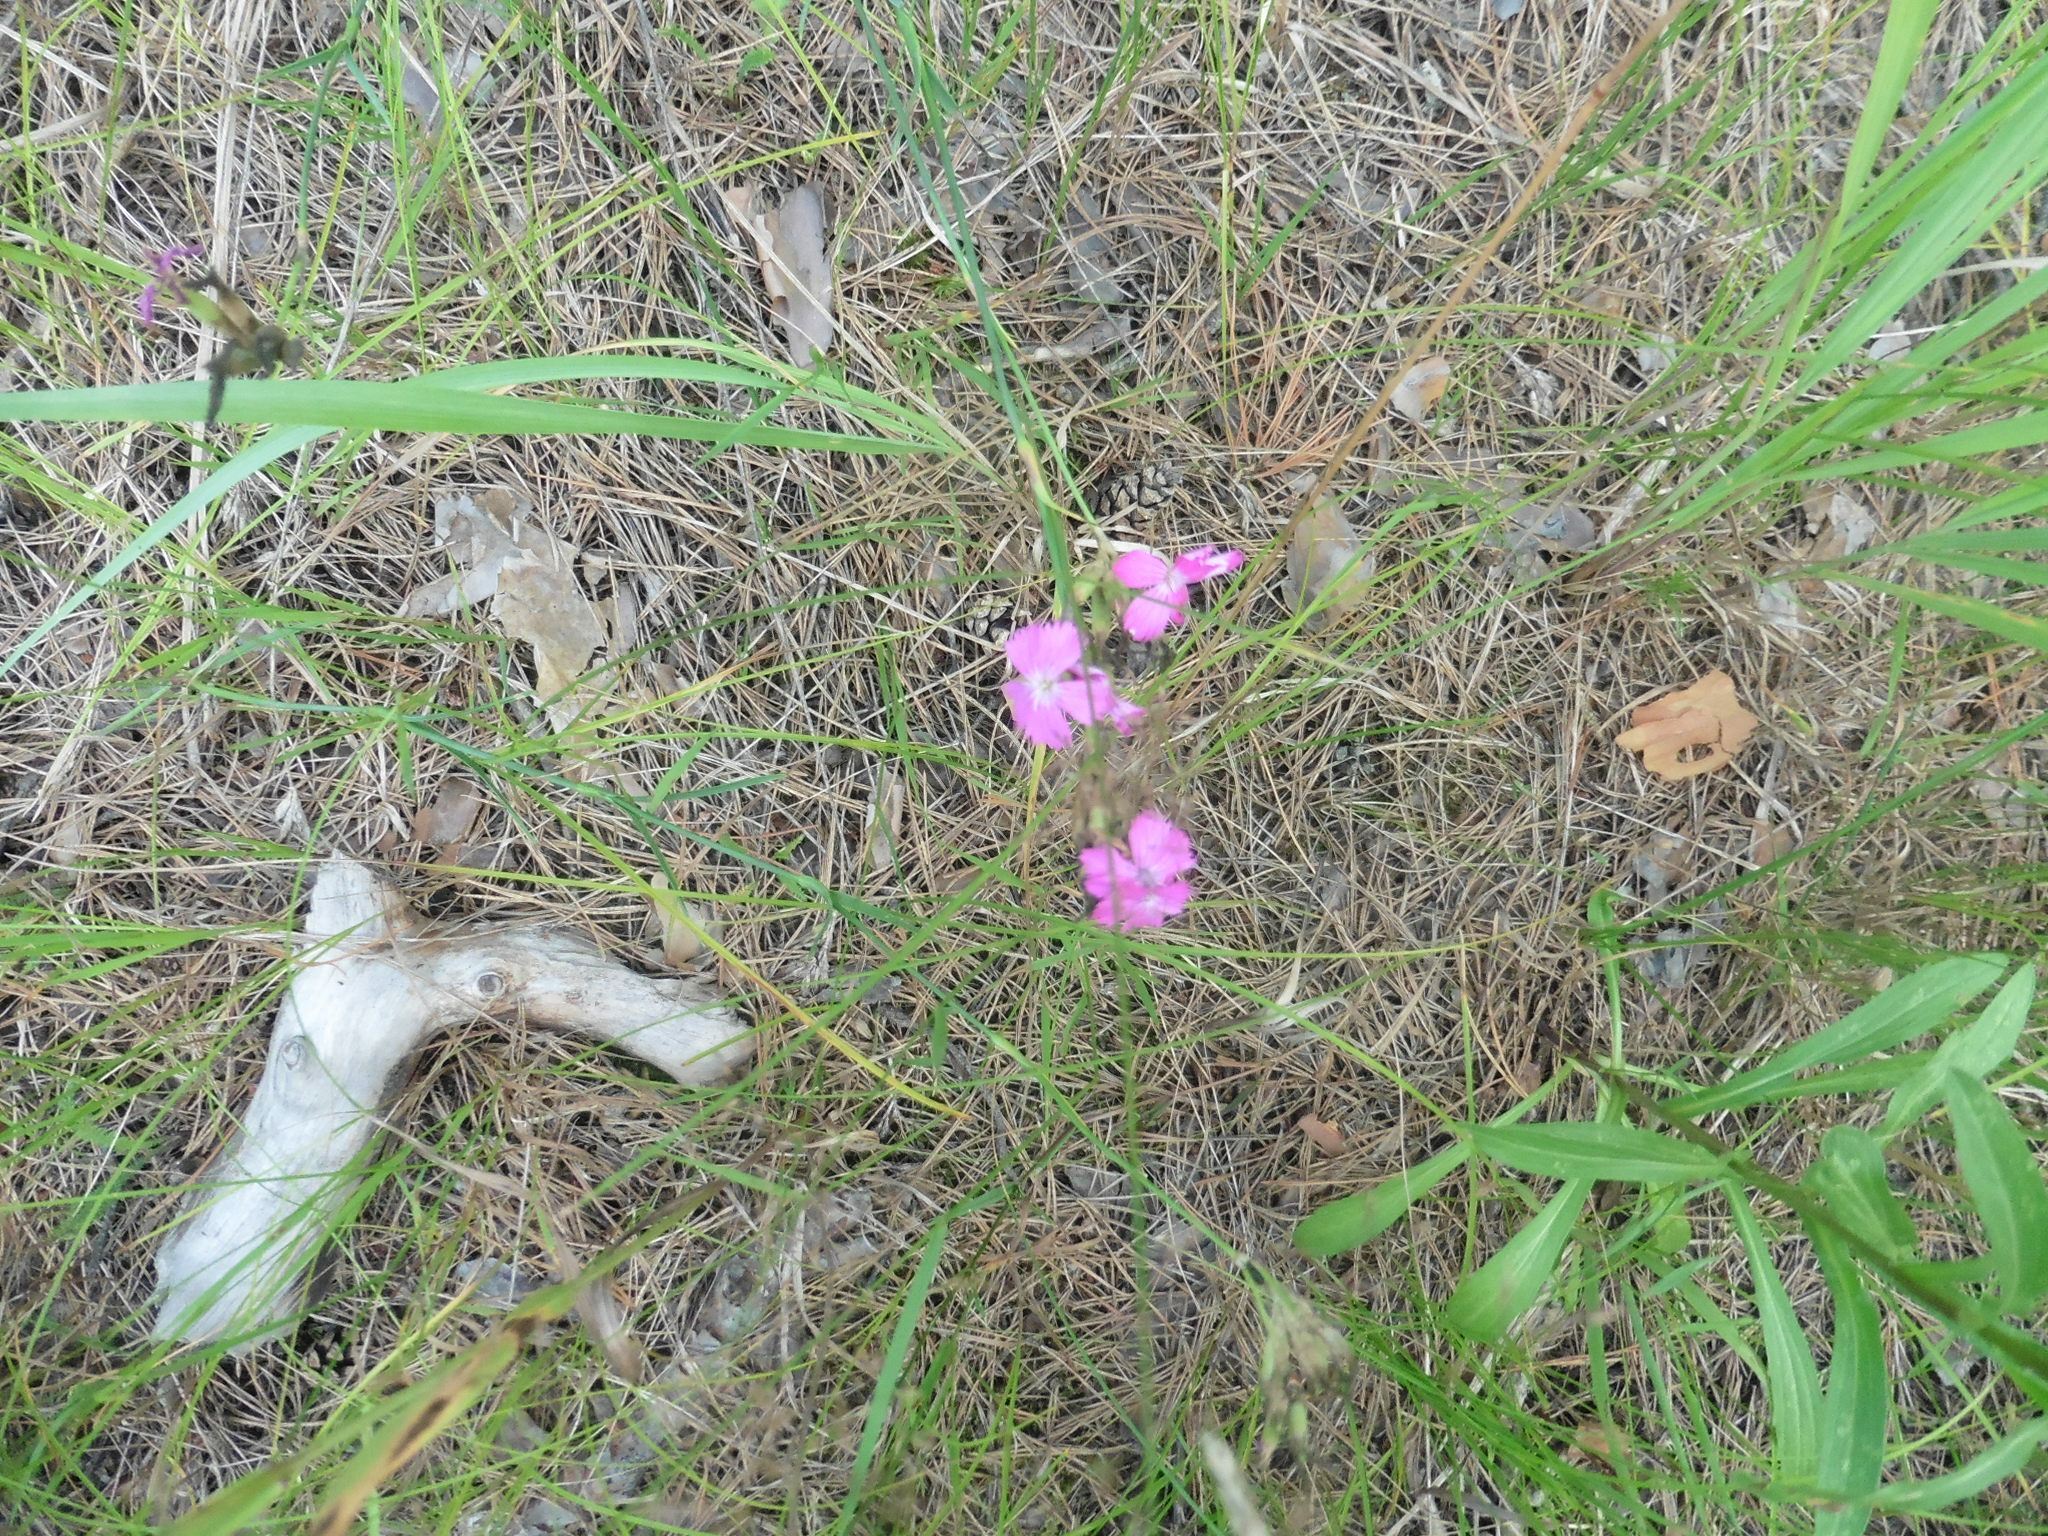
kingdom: Plantae
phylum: Tracheophyta
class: Magnoliopsida
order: Caryophyllales
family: Caryophyllaceae
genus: Dianthus
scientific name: Dianthus borbasii
